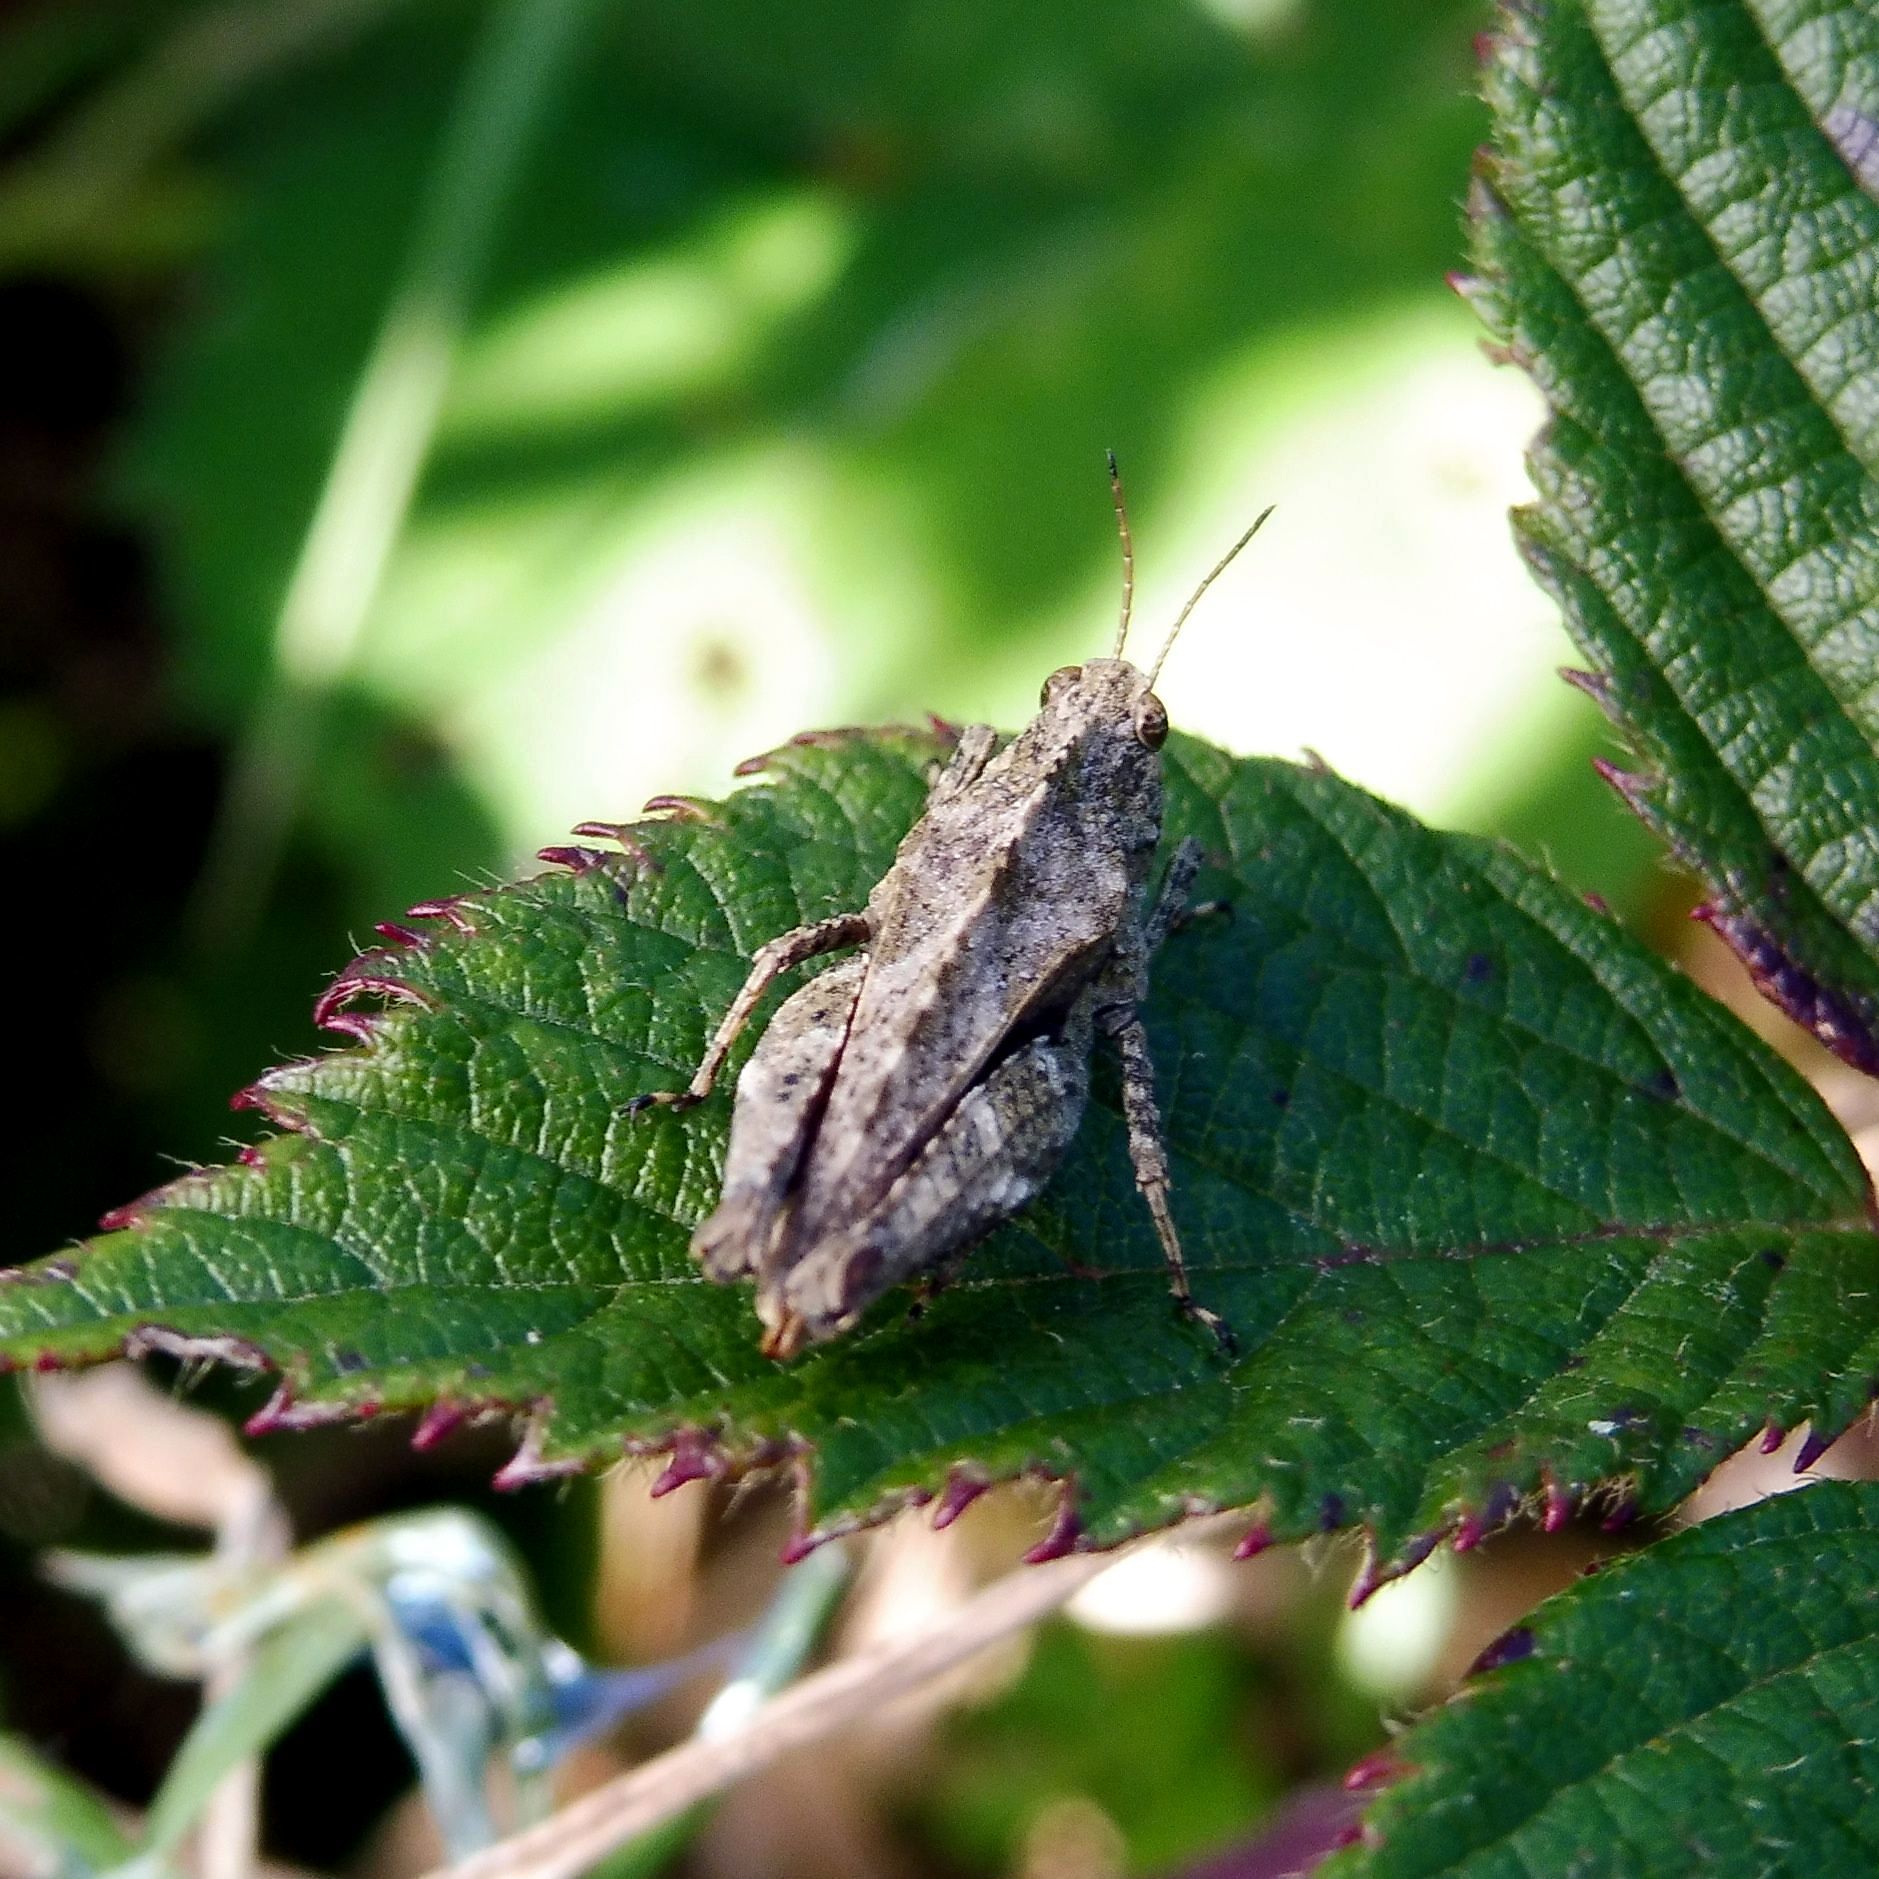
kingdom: Animalia
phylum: Arthropoda
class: Insecta
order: Orthoptera
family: Tetrigidae
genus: Tetrix
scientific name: Tetrix undulata
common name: Common groundhopper
